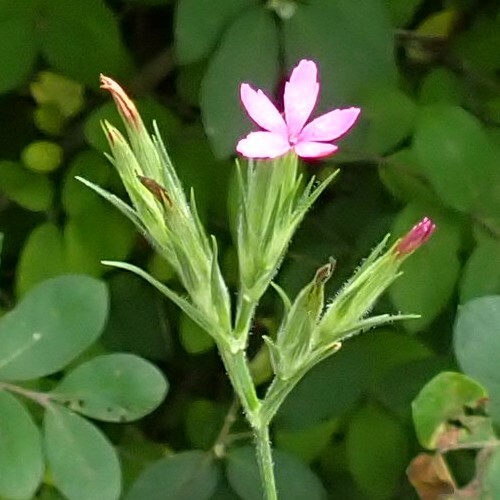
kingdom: Plantae
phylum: Tracheophyta
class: Magnoliopsida
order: Caryophyllales
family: Caryophyllaceae
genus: Dianthus
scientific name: Dianthus armeria
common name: Deptford pink
